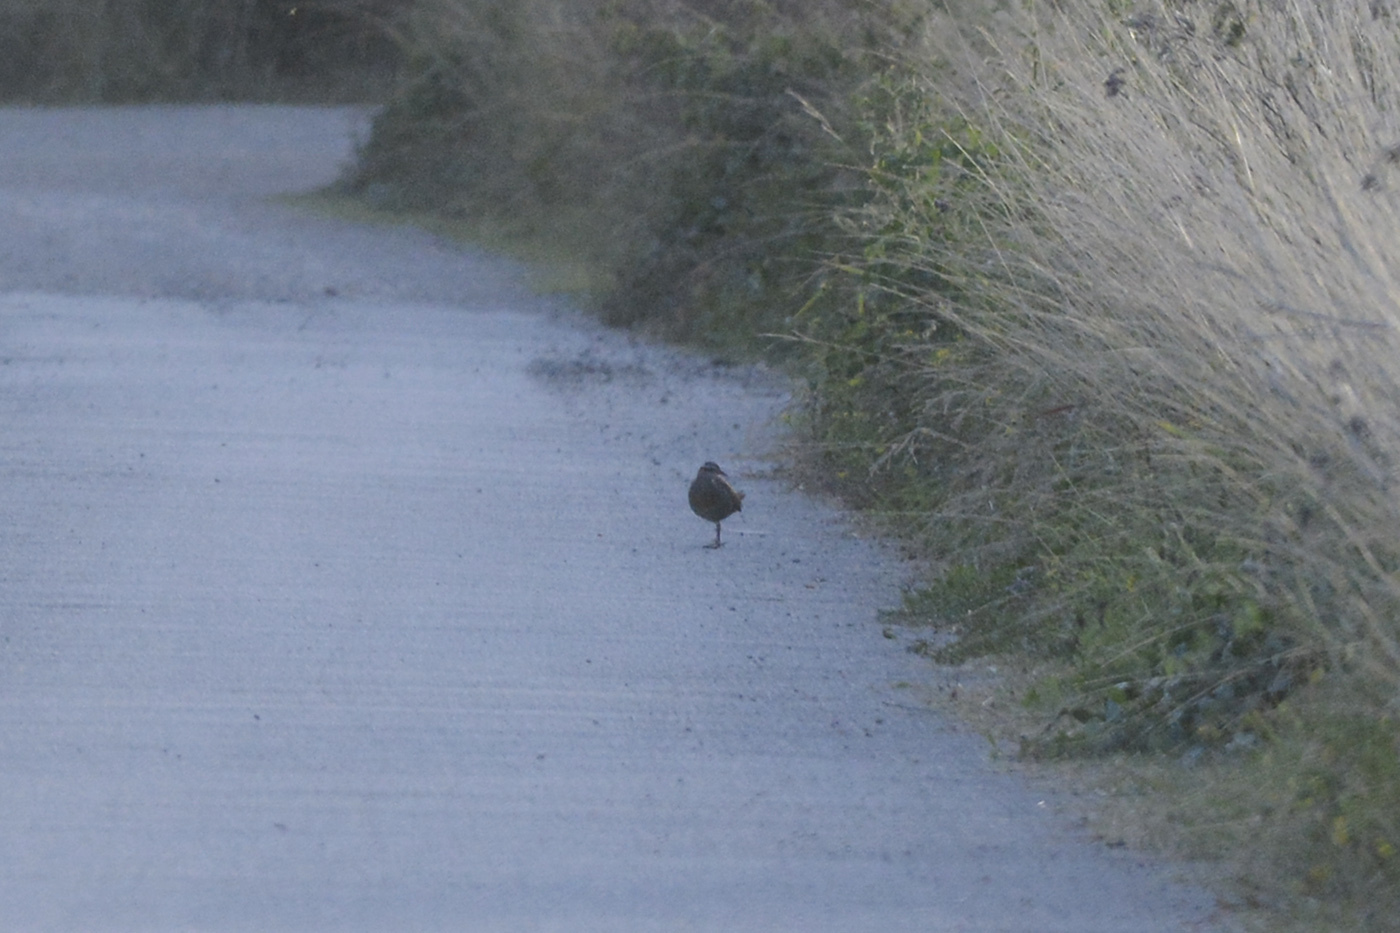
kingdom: Animalia
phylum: Chordata
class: Aves
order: Gruiformes
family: Rallidae
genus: Gallirallus
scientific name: Gallirallus philippensis
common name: Buff-banded rail
